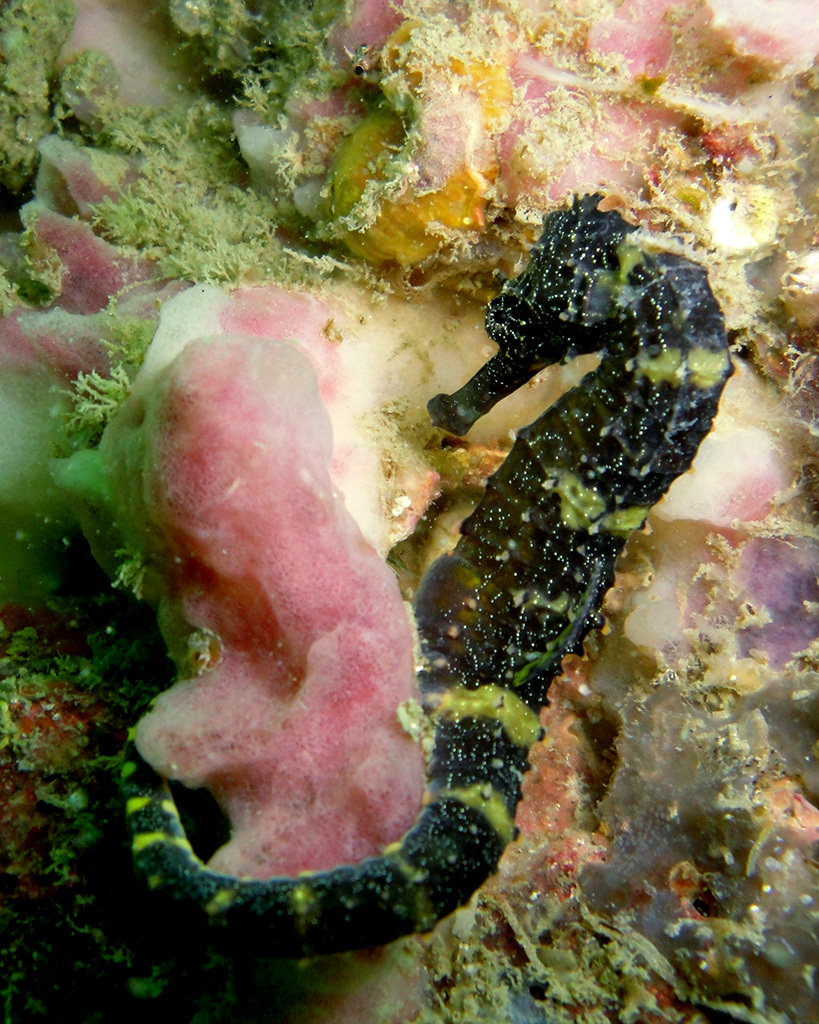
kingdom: Animalia
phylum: Chordata
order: Syngnathiformes
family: Syngnathidae
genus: Hippocampus
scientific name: Hippocampus comes
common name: Tiger tail seahorse
